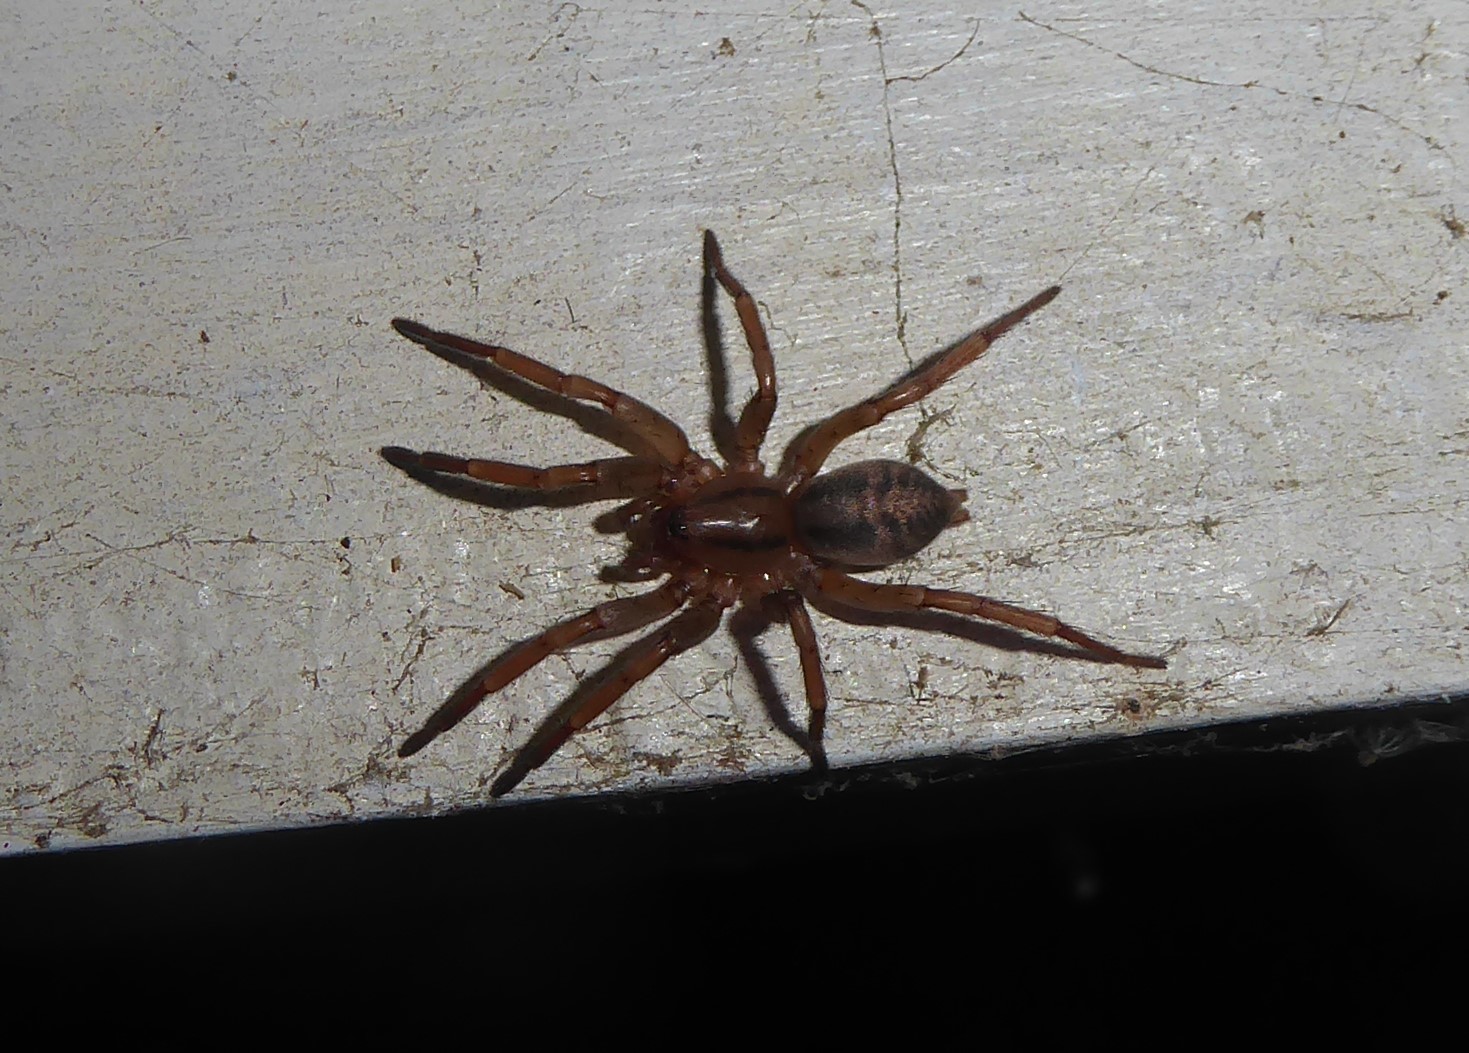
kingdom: Animalia
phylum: Arthropoda
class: Arachnida
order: Araneae
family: Gnaphosidae
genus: Notiodrassus
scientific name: Notiodrassus distinctus
